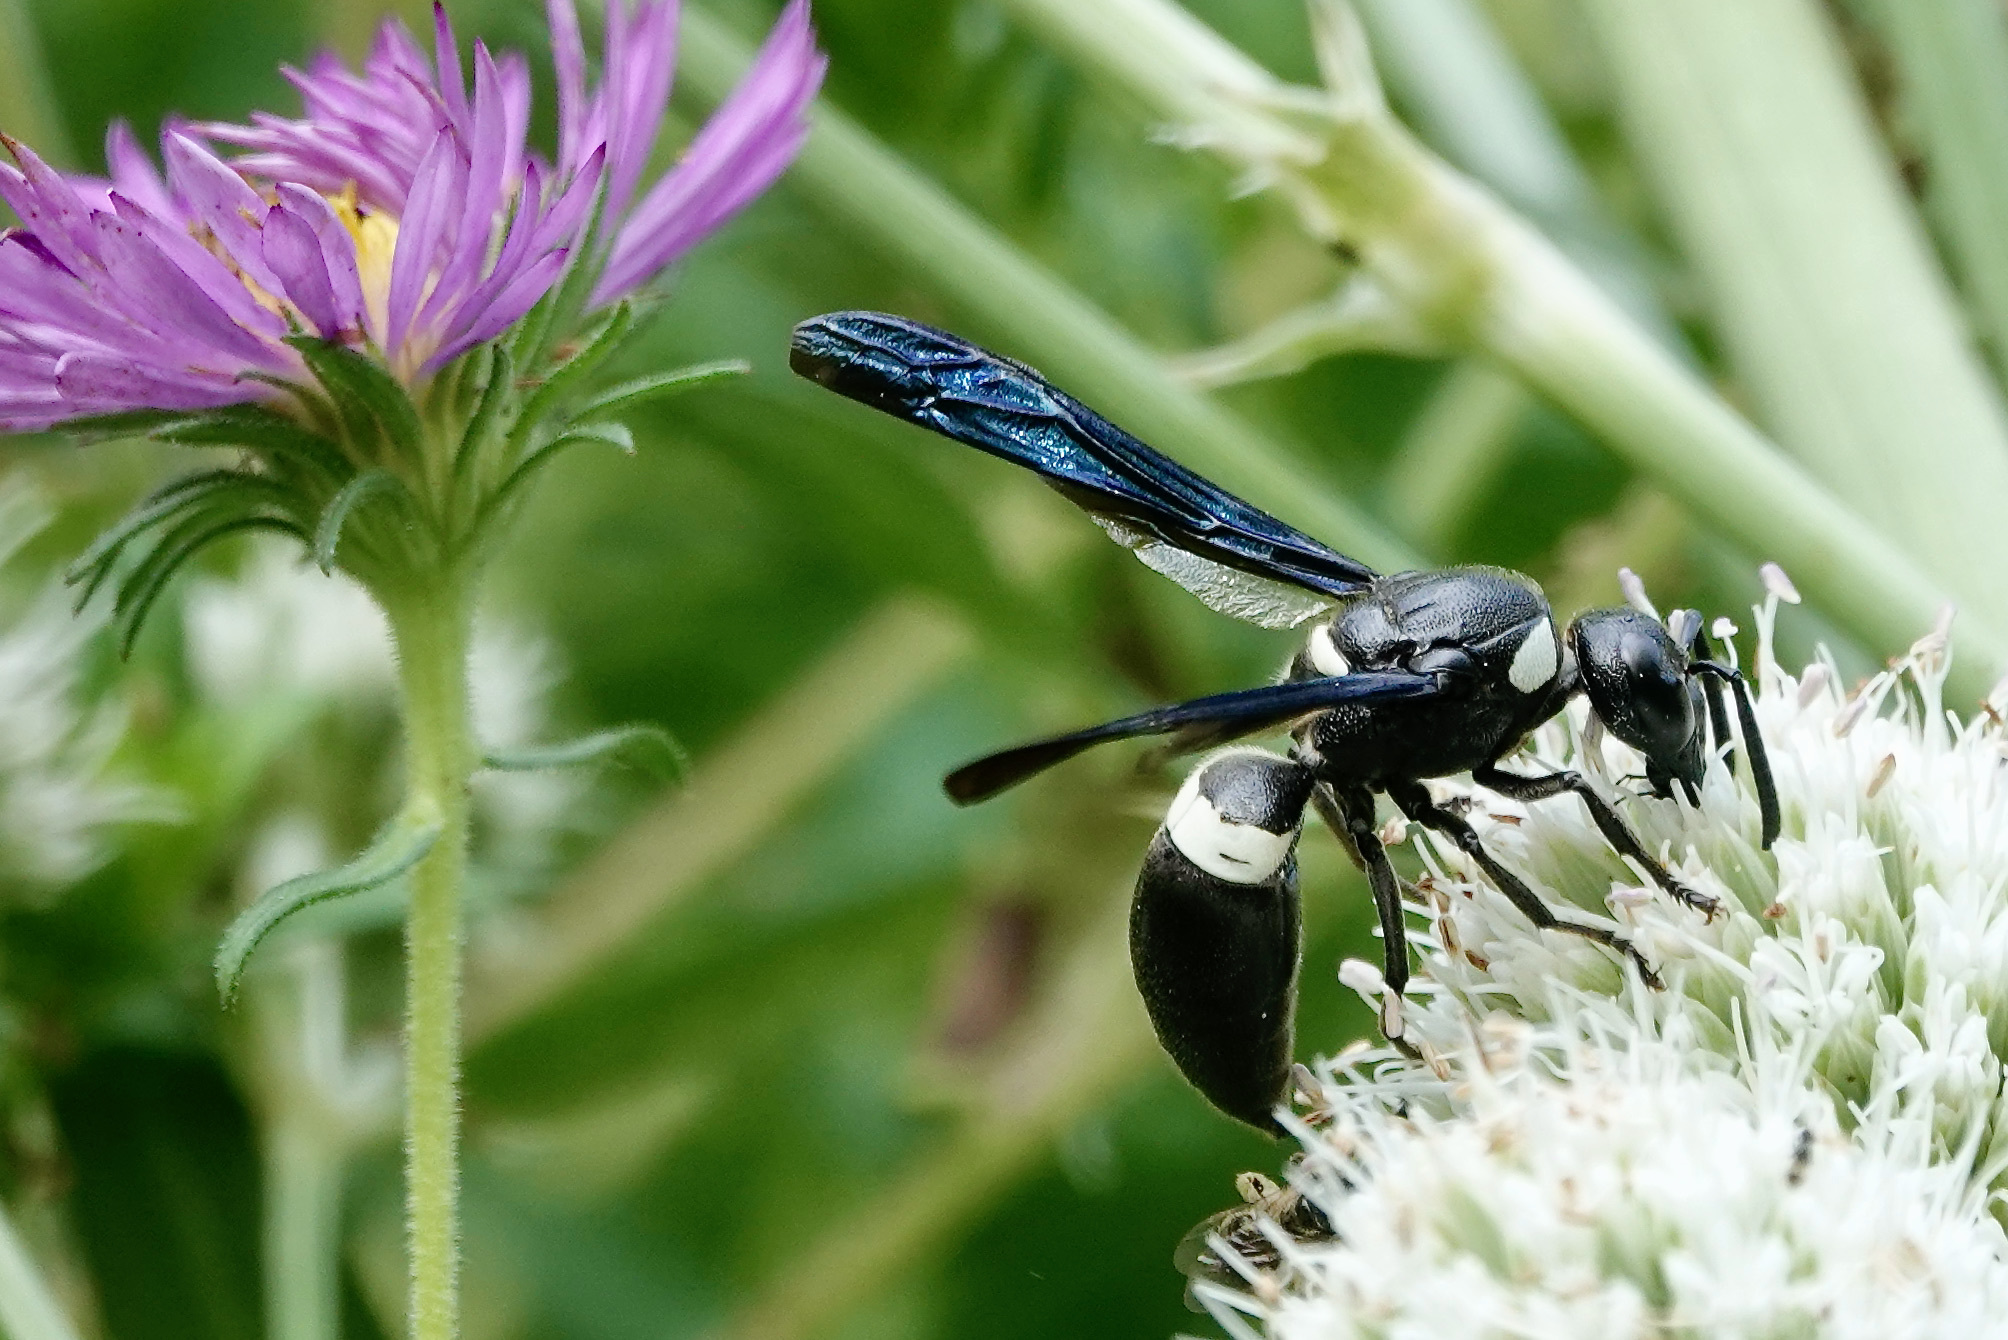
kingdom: Animalia
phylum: Arthropoda
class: Insecta
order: Hymenoptera
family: Eumenidae
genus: Monobia
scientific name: Monobia quadridens
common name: Four-toothed mason wasp
